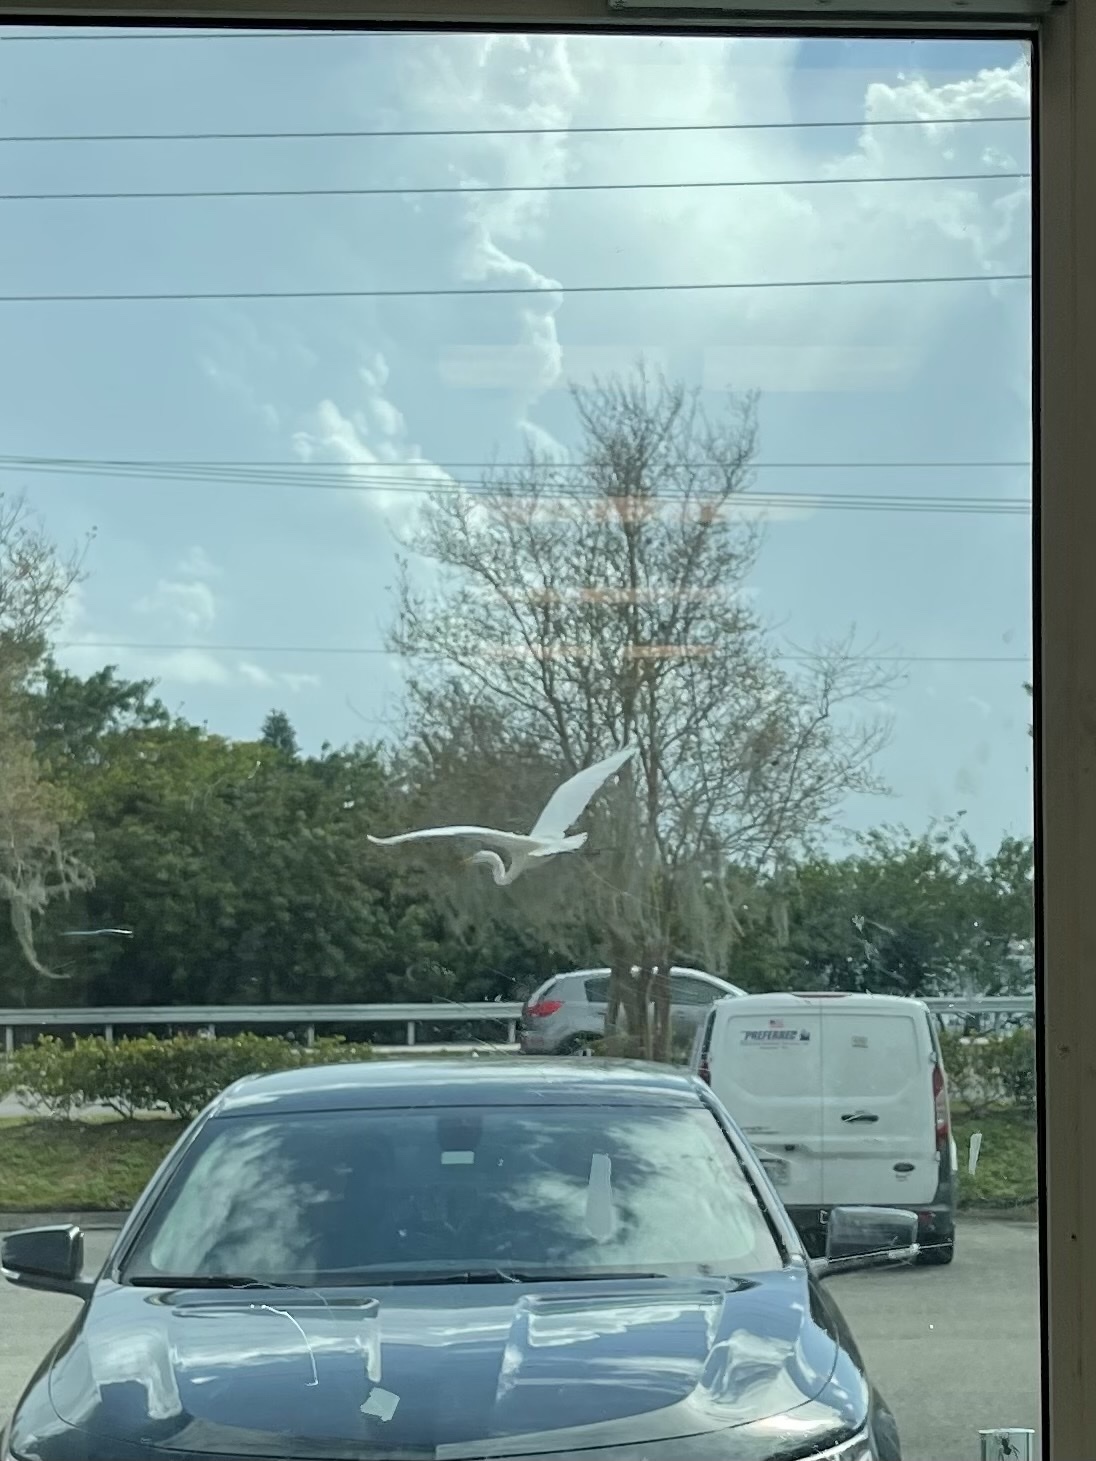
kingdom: Animalia
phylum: Chordata
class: Aves
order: Pelecaniformes
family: Ardeidae
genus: Ardea
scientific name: Ardea alba
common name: Great egret
